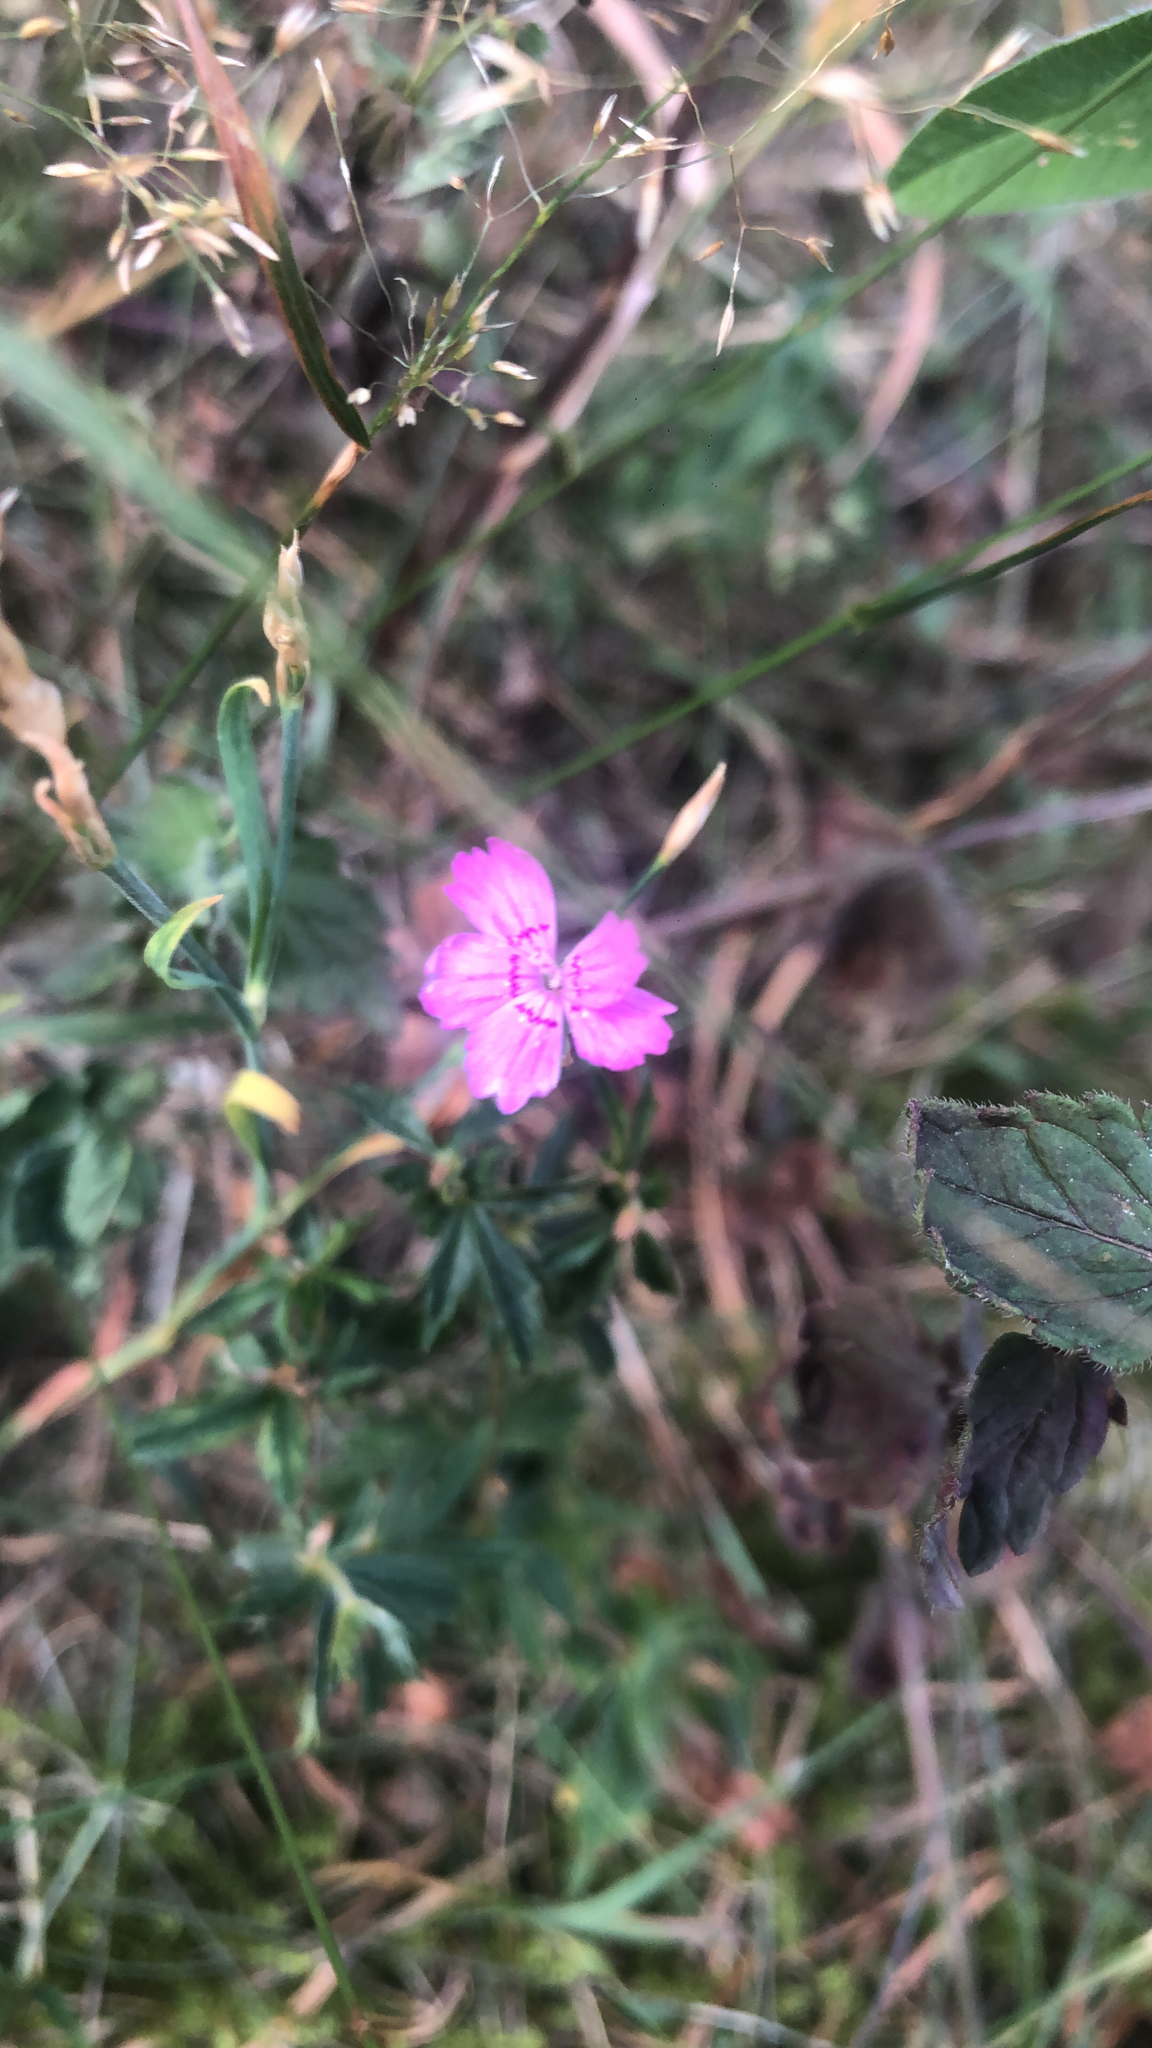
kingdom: Plantae
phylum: Tracheophyta
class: Magnoliopsida
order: Caryophyllales
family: Caryophyllaceae
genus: Dianthus
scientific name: Dianthus deltoides
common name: Maiden pink
